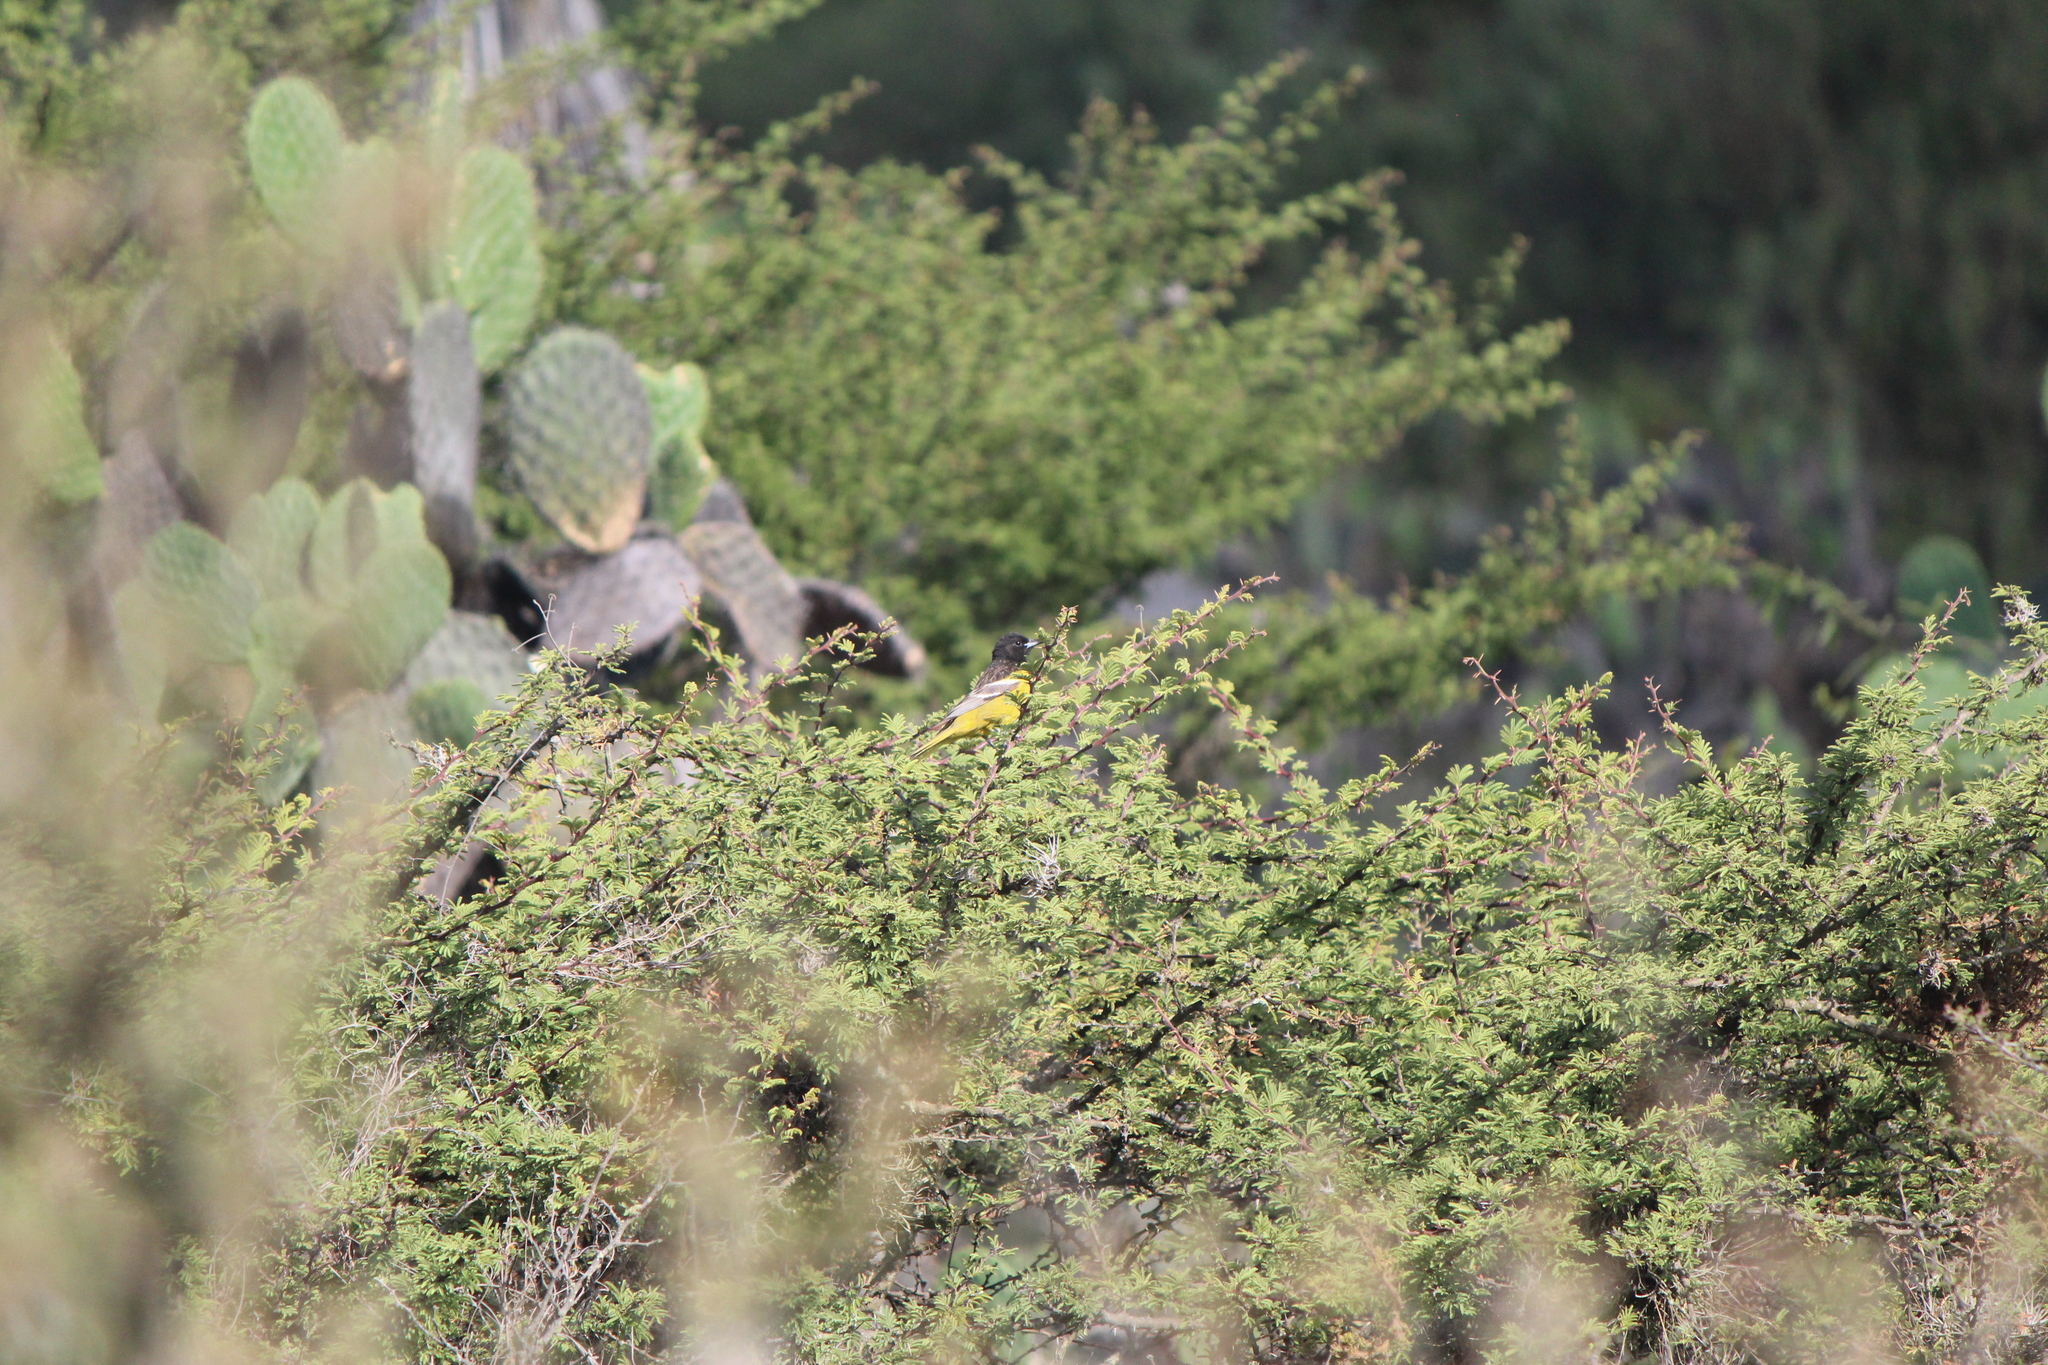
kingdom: Animalia
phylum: Chordata
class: Aves
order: Passeriformes
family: Icteridae
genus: Icterus
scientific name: Icterus parisorum
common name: Scott's oriole
